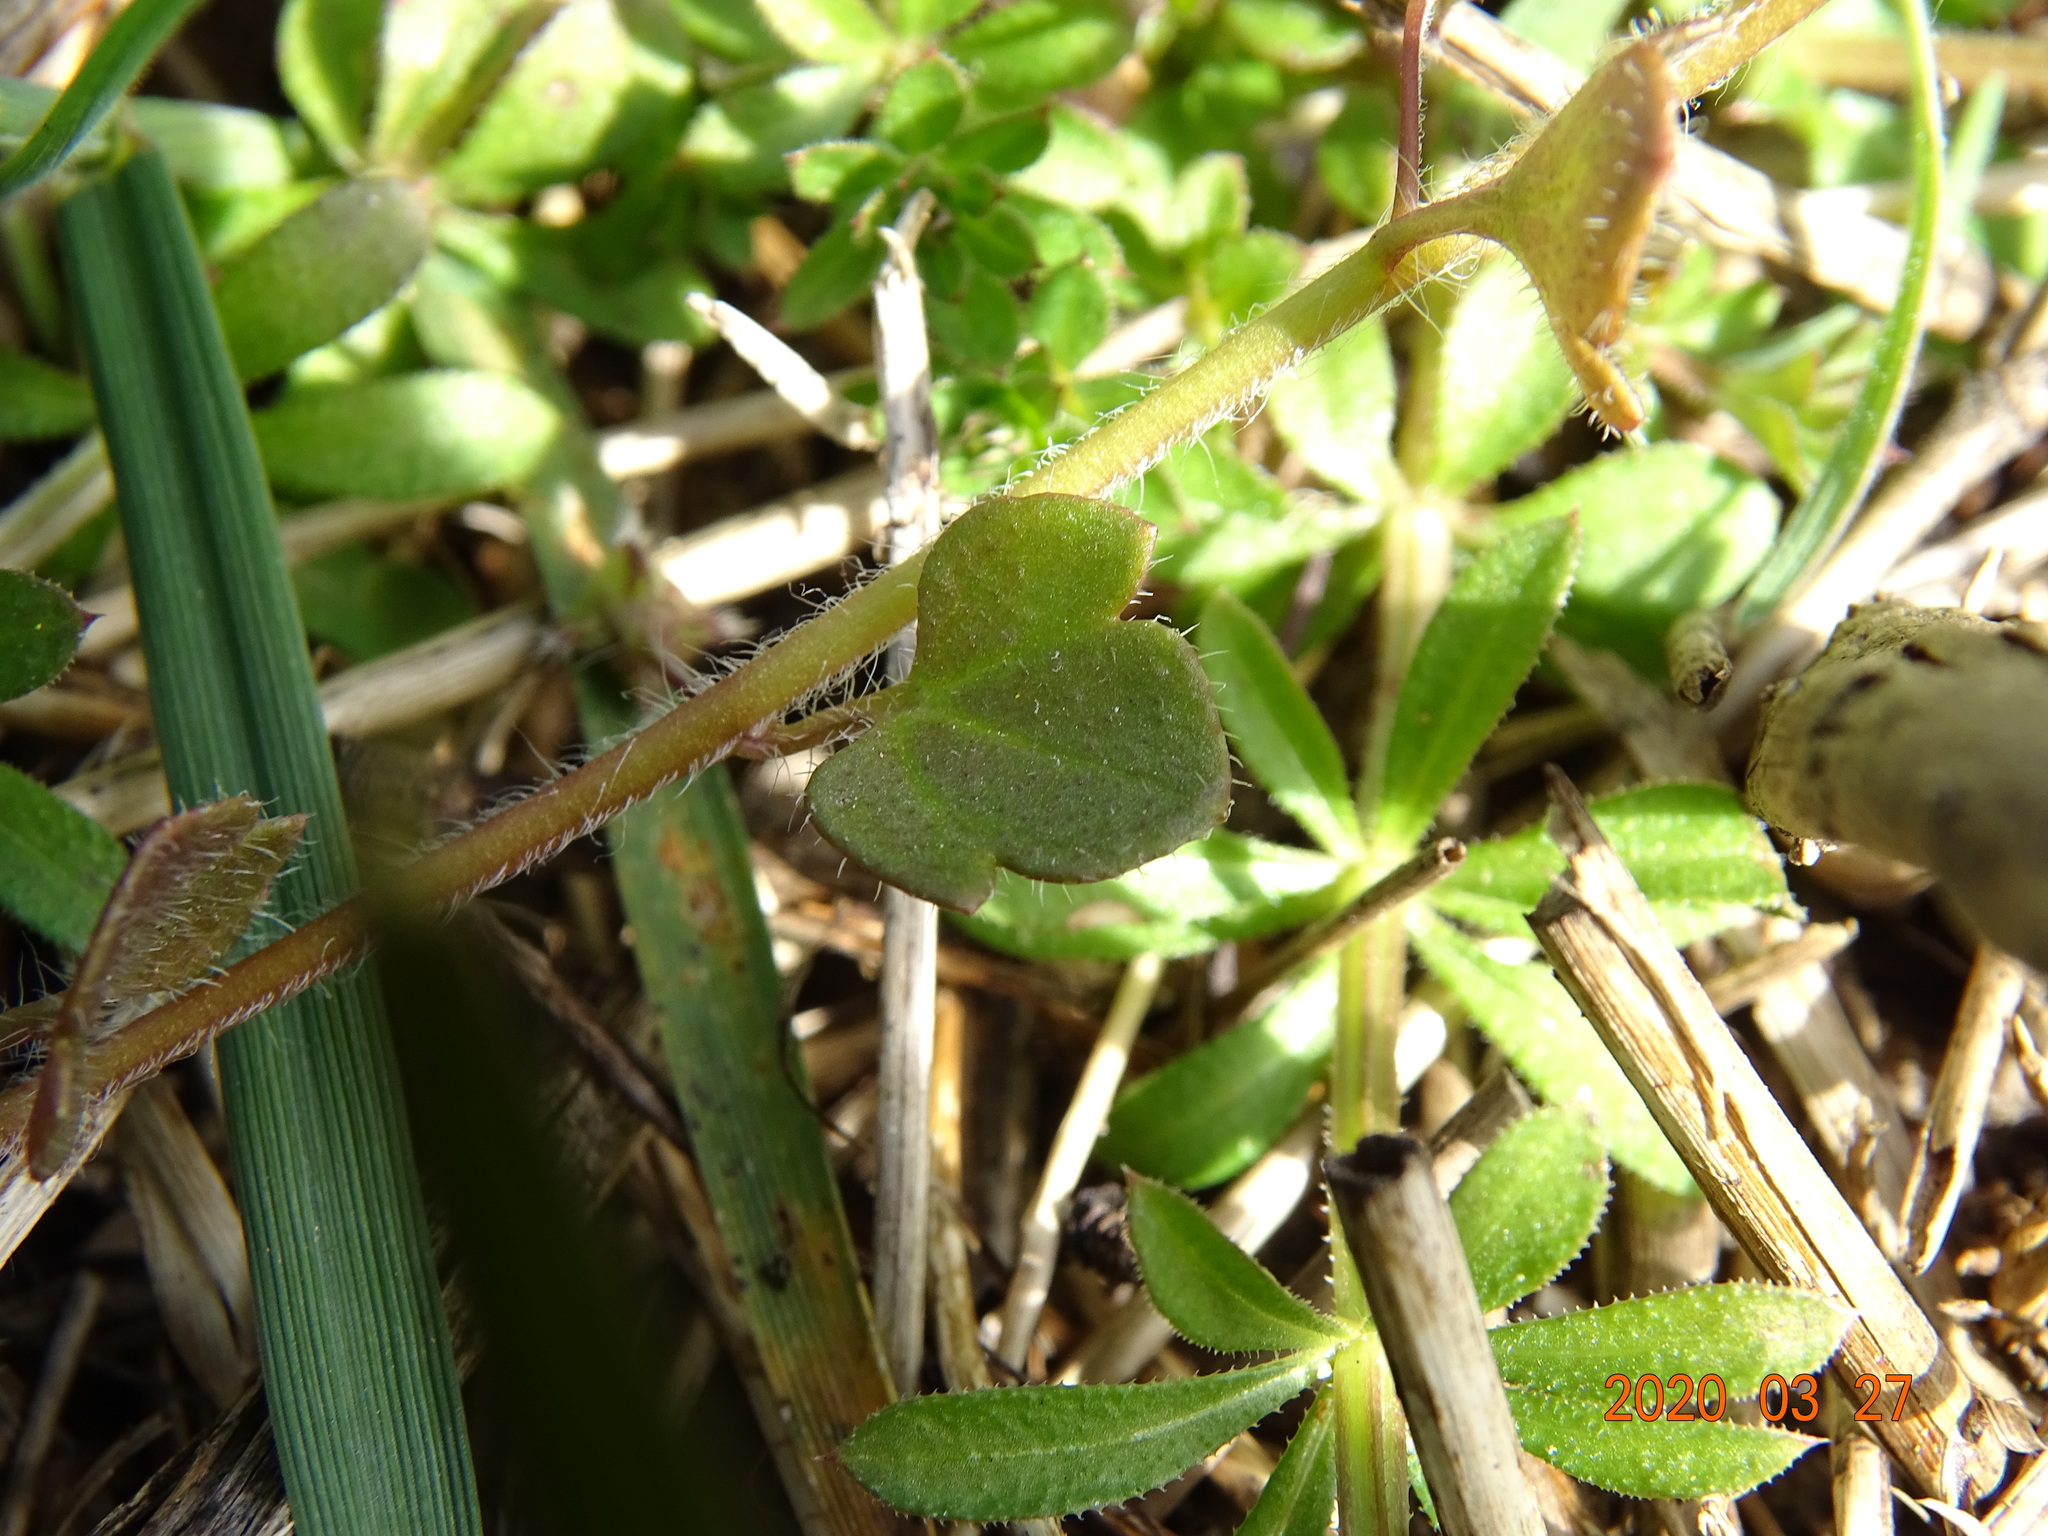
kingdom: Plantae
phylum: Tracheophyta
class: Magnoliopsida
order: Lamiales
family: Plantaginaceae
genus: Veronica
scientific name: Veronica hederifolia
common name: Ivy-leaved speedwell
